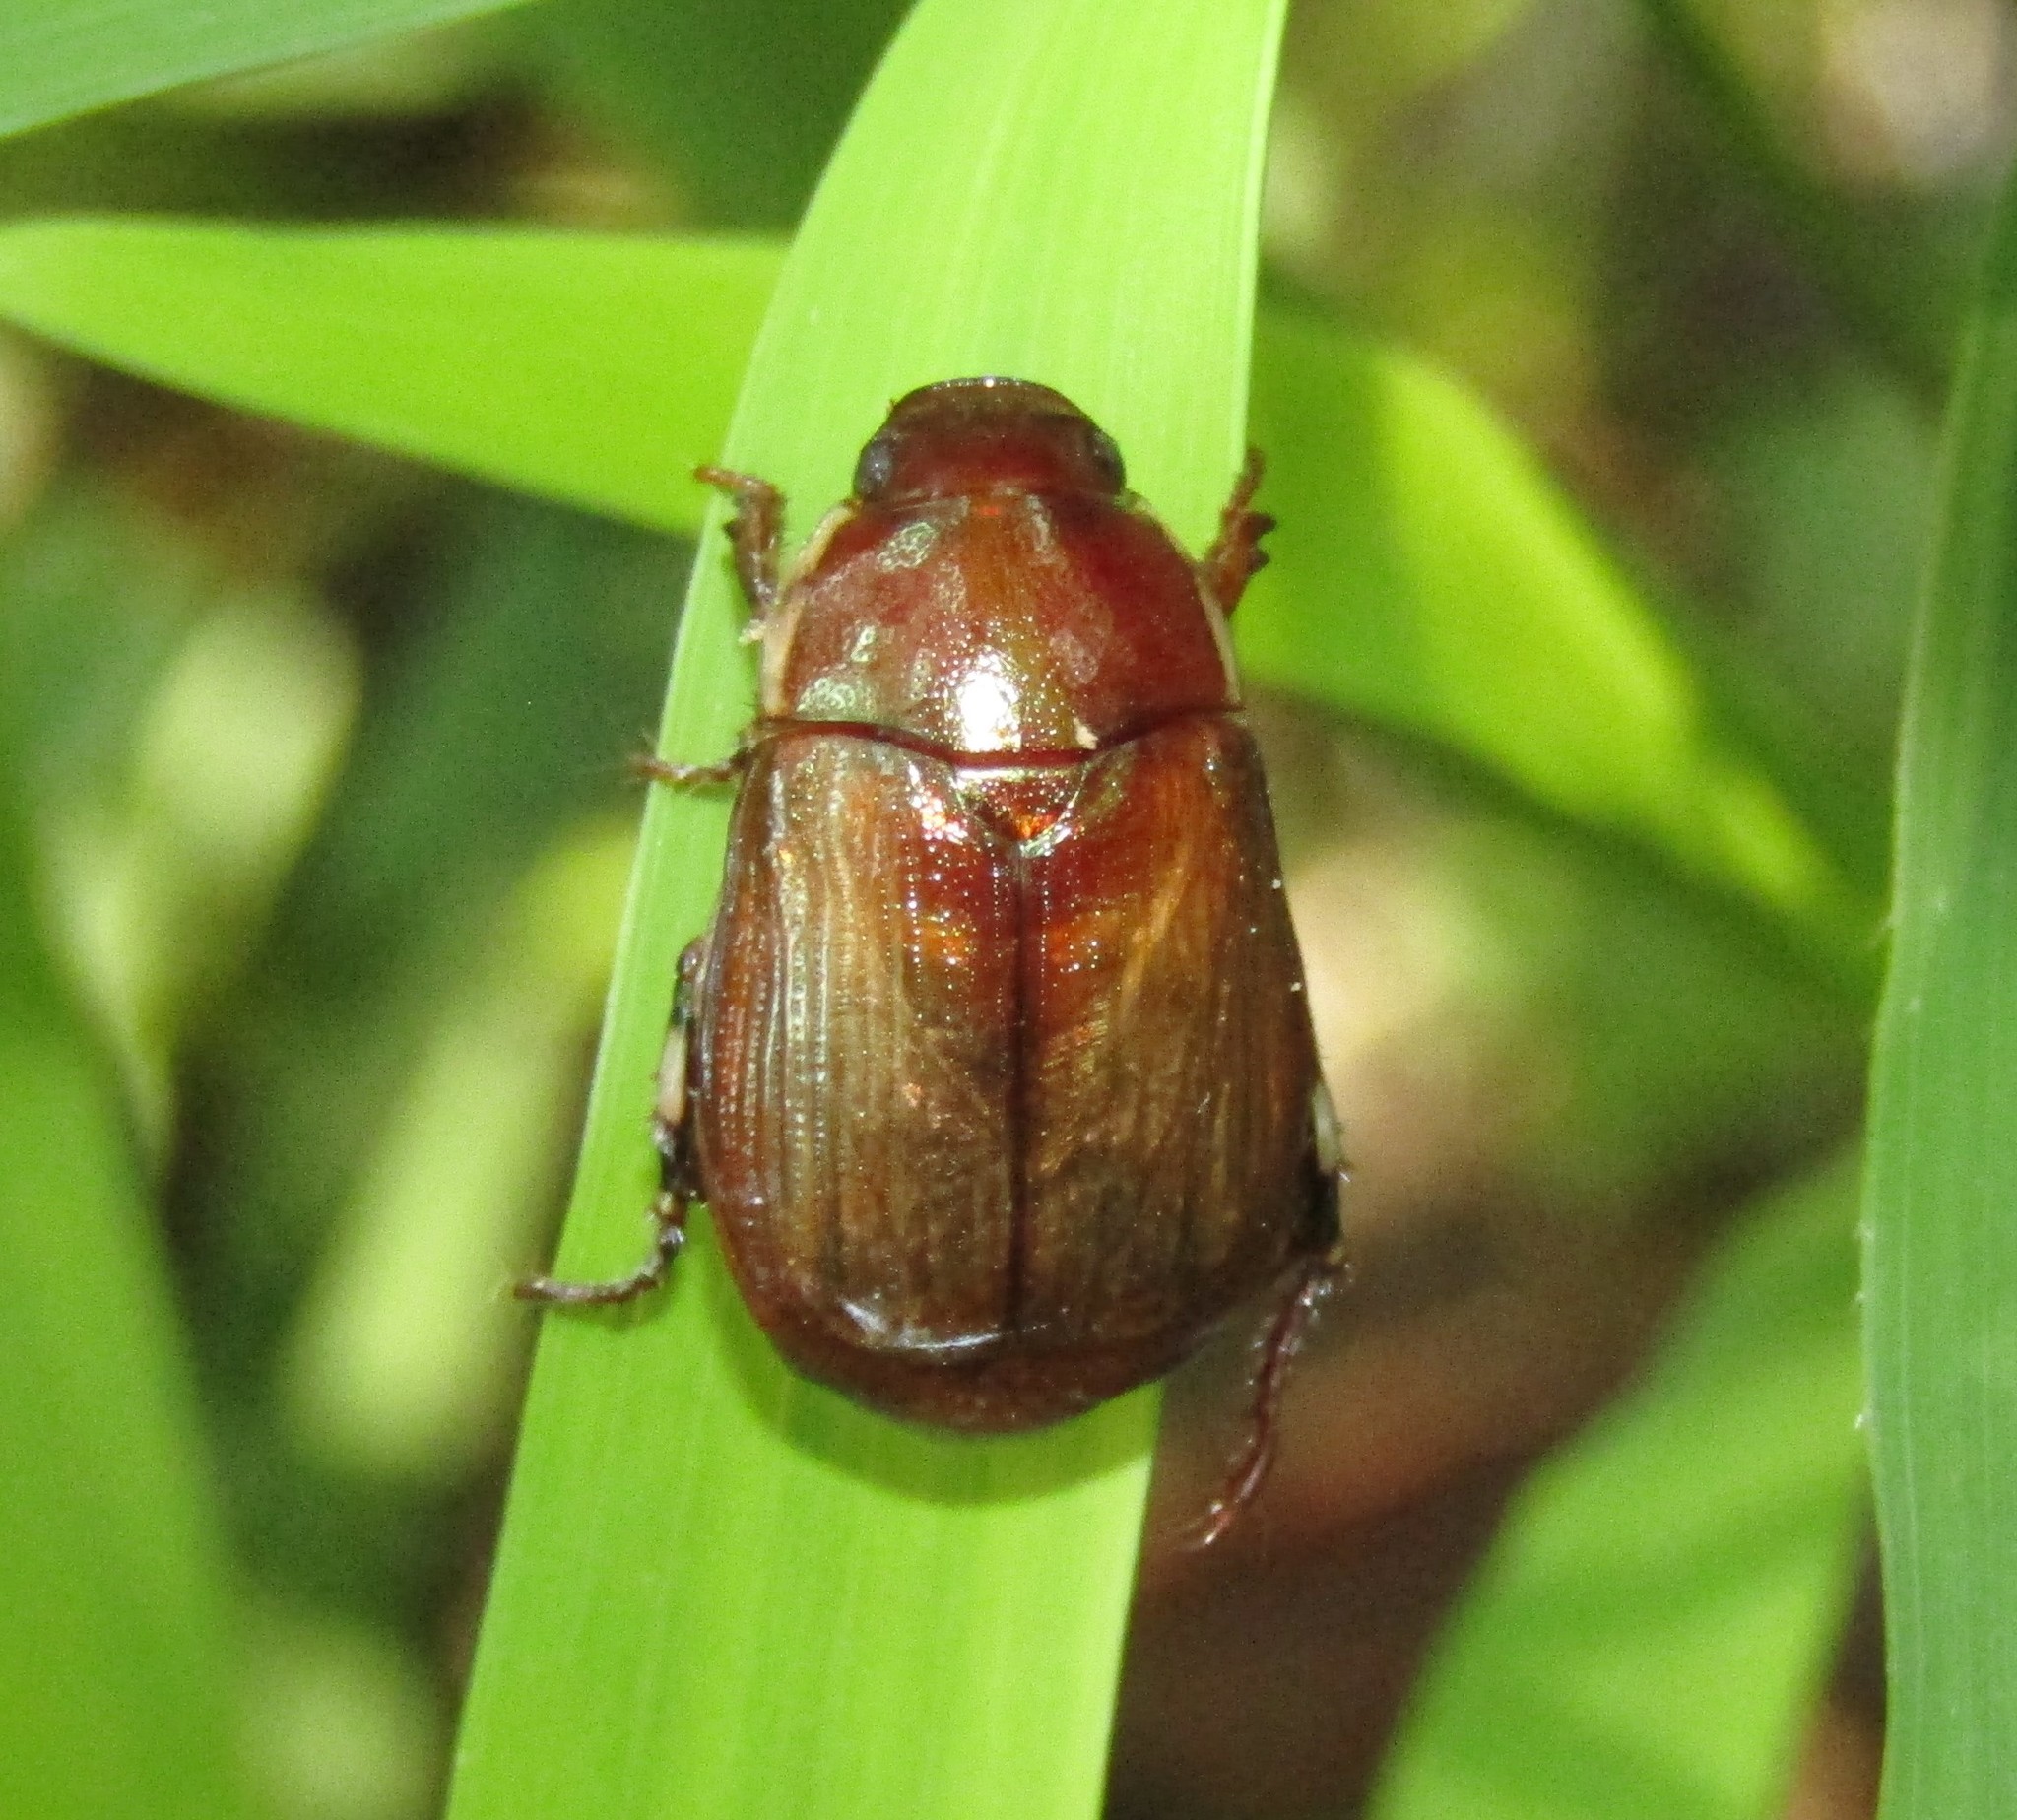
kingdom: Animalia
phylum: Arthropoda
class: Insecta
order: Coleoptera
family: Scarabaeidae
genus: Callistethus
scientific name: Callistethus marginatus
